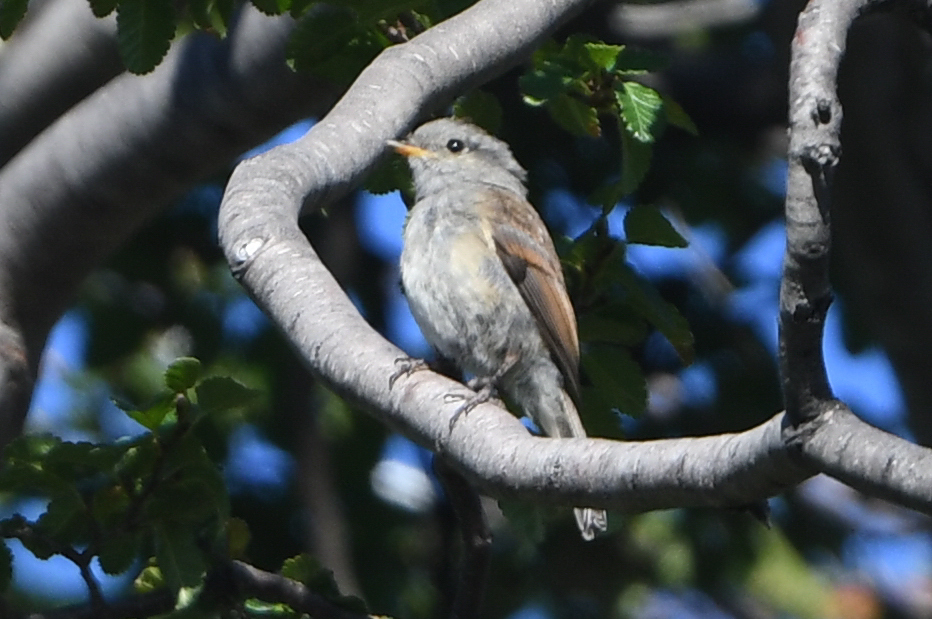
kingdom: Animalia
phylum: Chordata
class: Aves
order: Passeriformes
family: Tyrannidae
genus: Colorhamphus
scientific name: Colorhamphus parvirostris
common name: Patagonian tyrant
